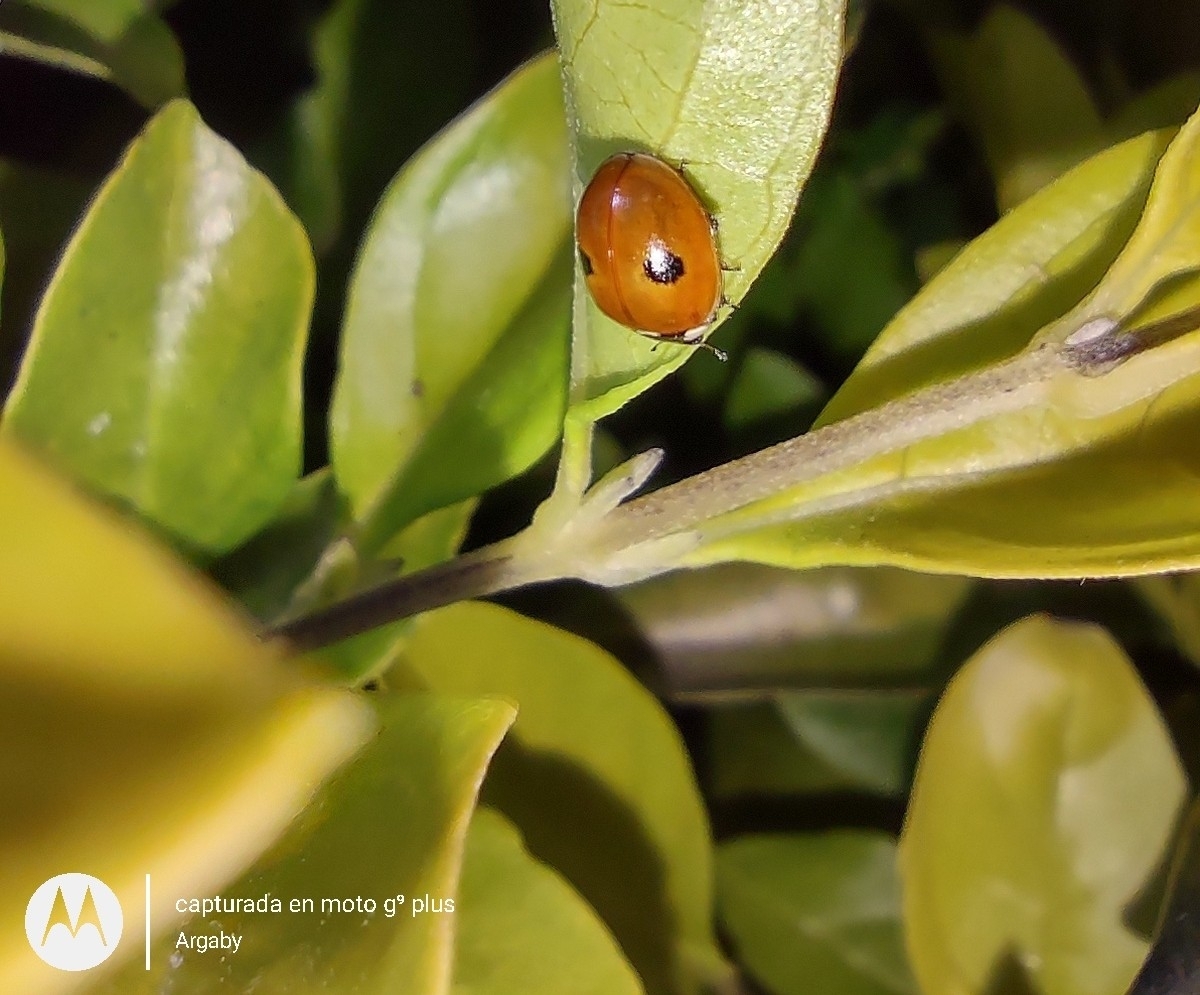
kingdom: Animalia
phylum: Arthropoda
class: Insecta
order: Coleoptera
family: Coccinellidae
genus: Adalia
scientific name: Adalia bipunctata
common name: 2-spot ladybird
